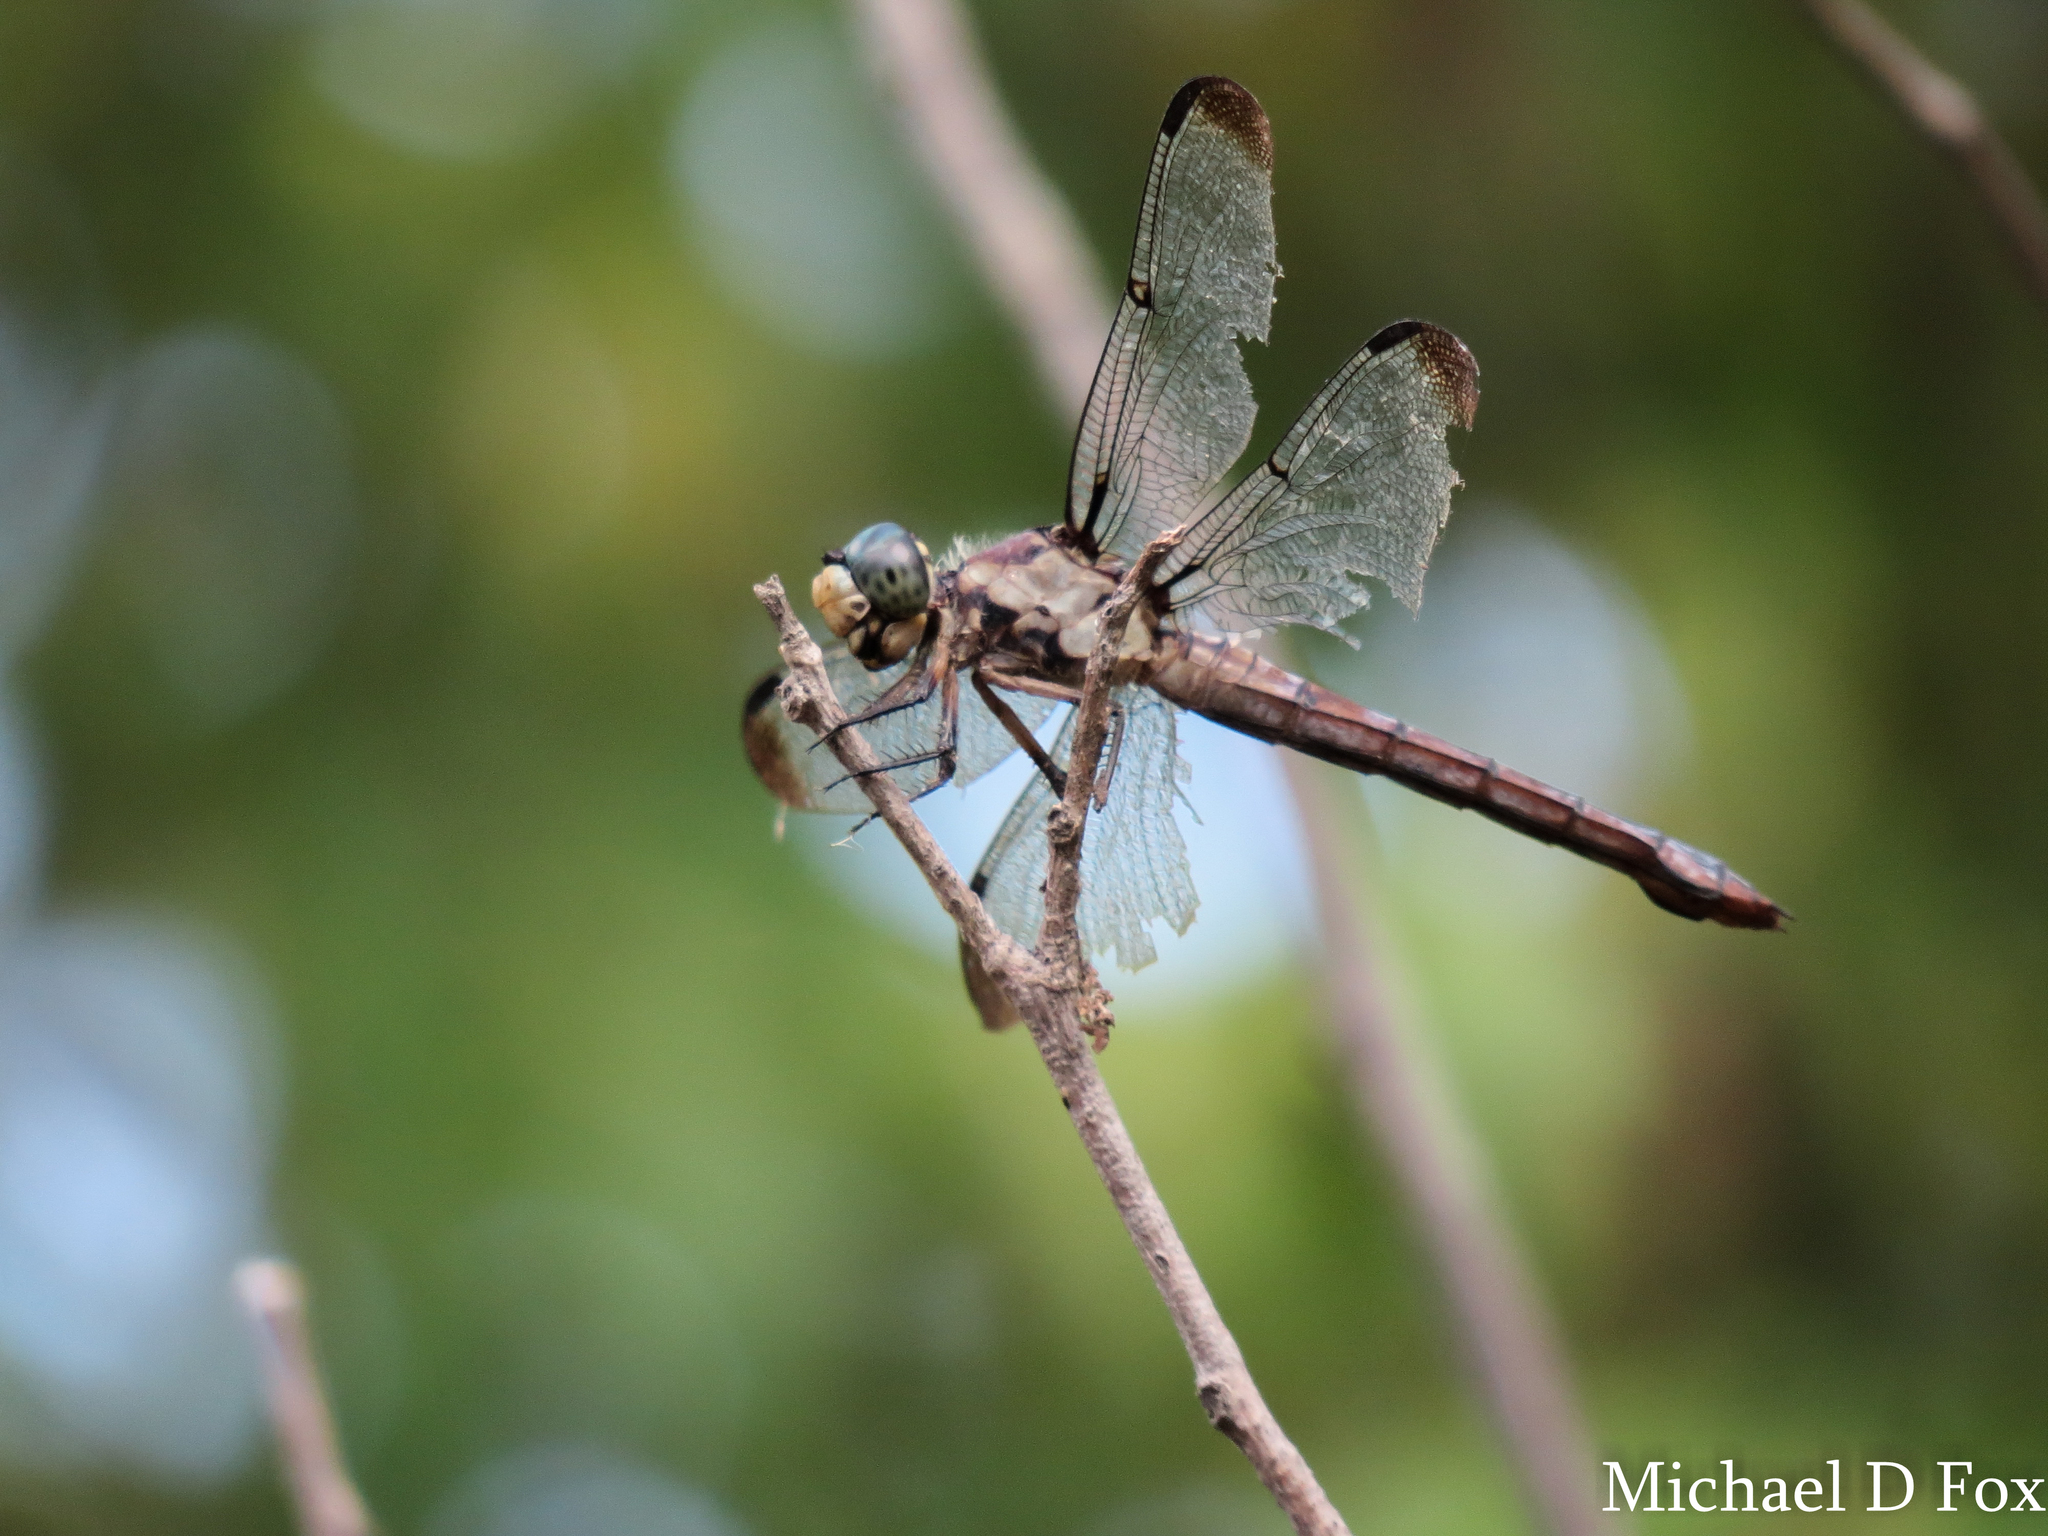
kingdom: Animalia
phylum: Arthropoda
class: Insecta
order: Odonata
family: Libellulidae
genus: Libellula
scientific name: Libellula vibrans
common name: Great blue skimmer
